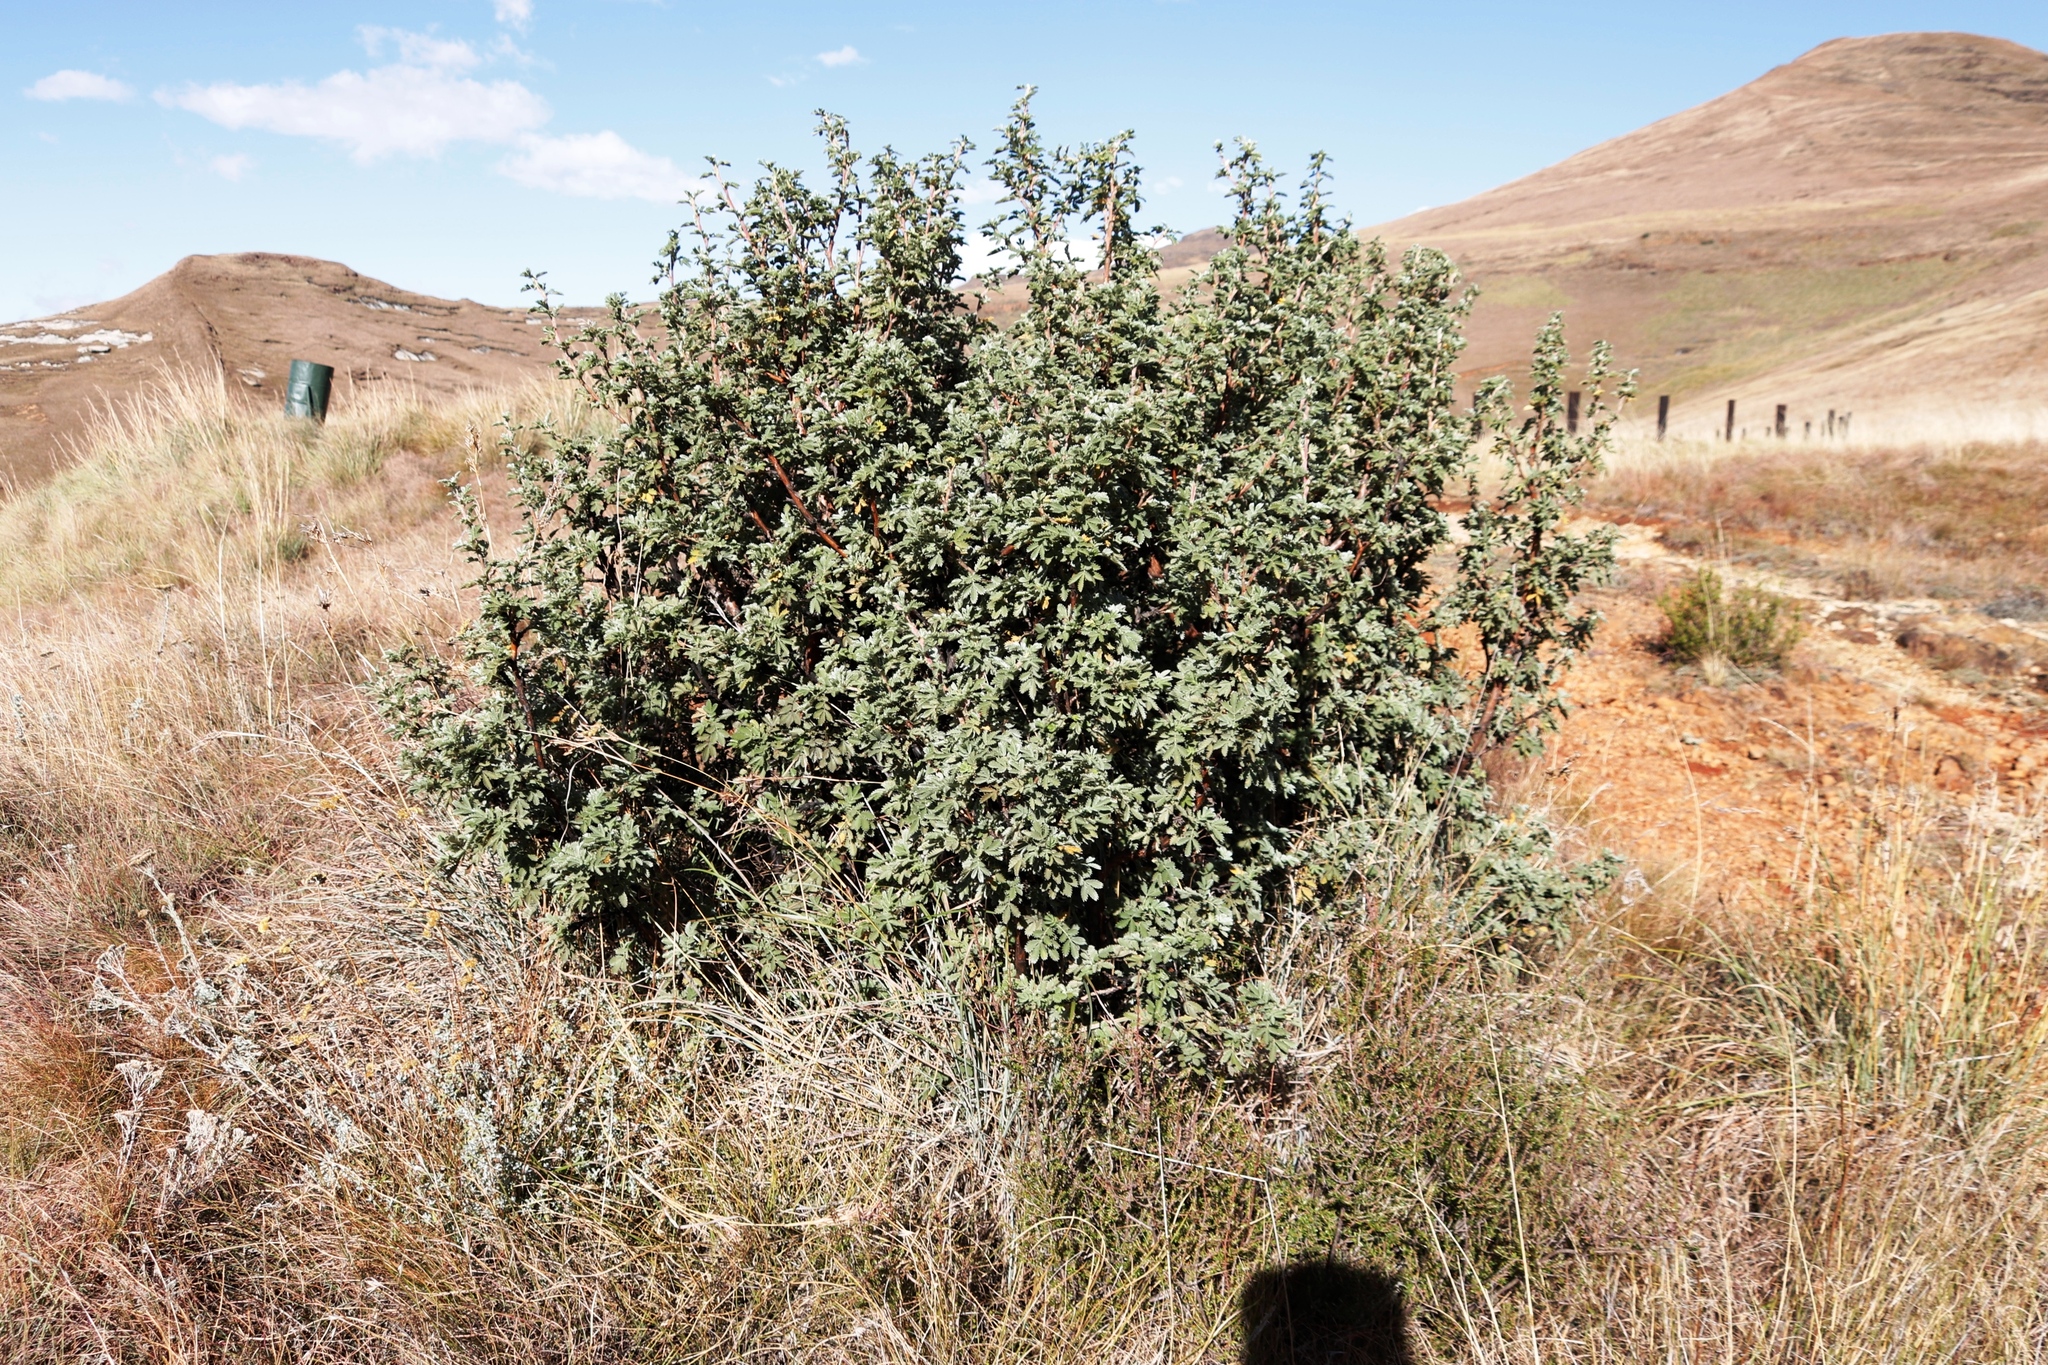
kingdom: Plantae
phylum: Tracheophyta
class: Magnoliopsida
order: Rosales
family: Rosaceae
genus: Leucosidea
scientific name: Leucosidea sericea
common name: Oldwood
